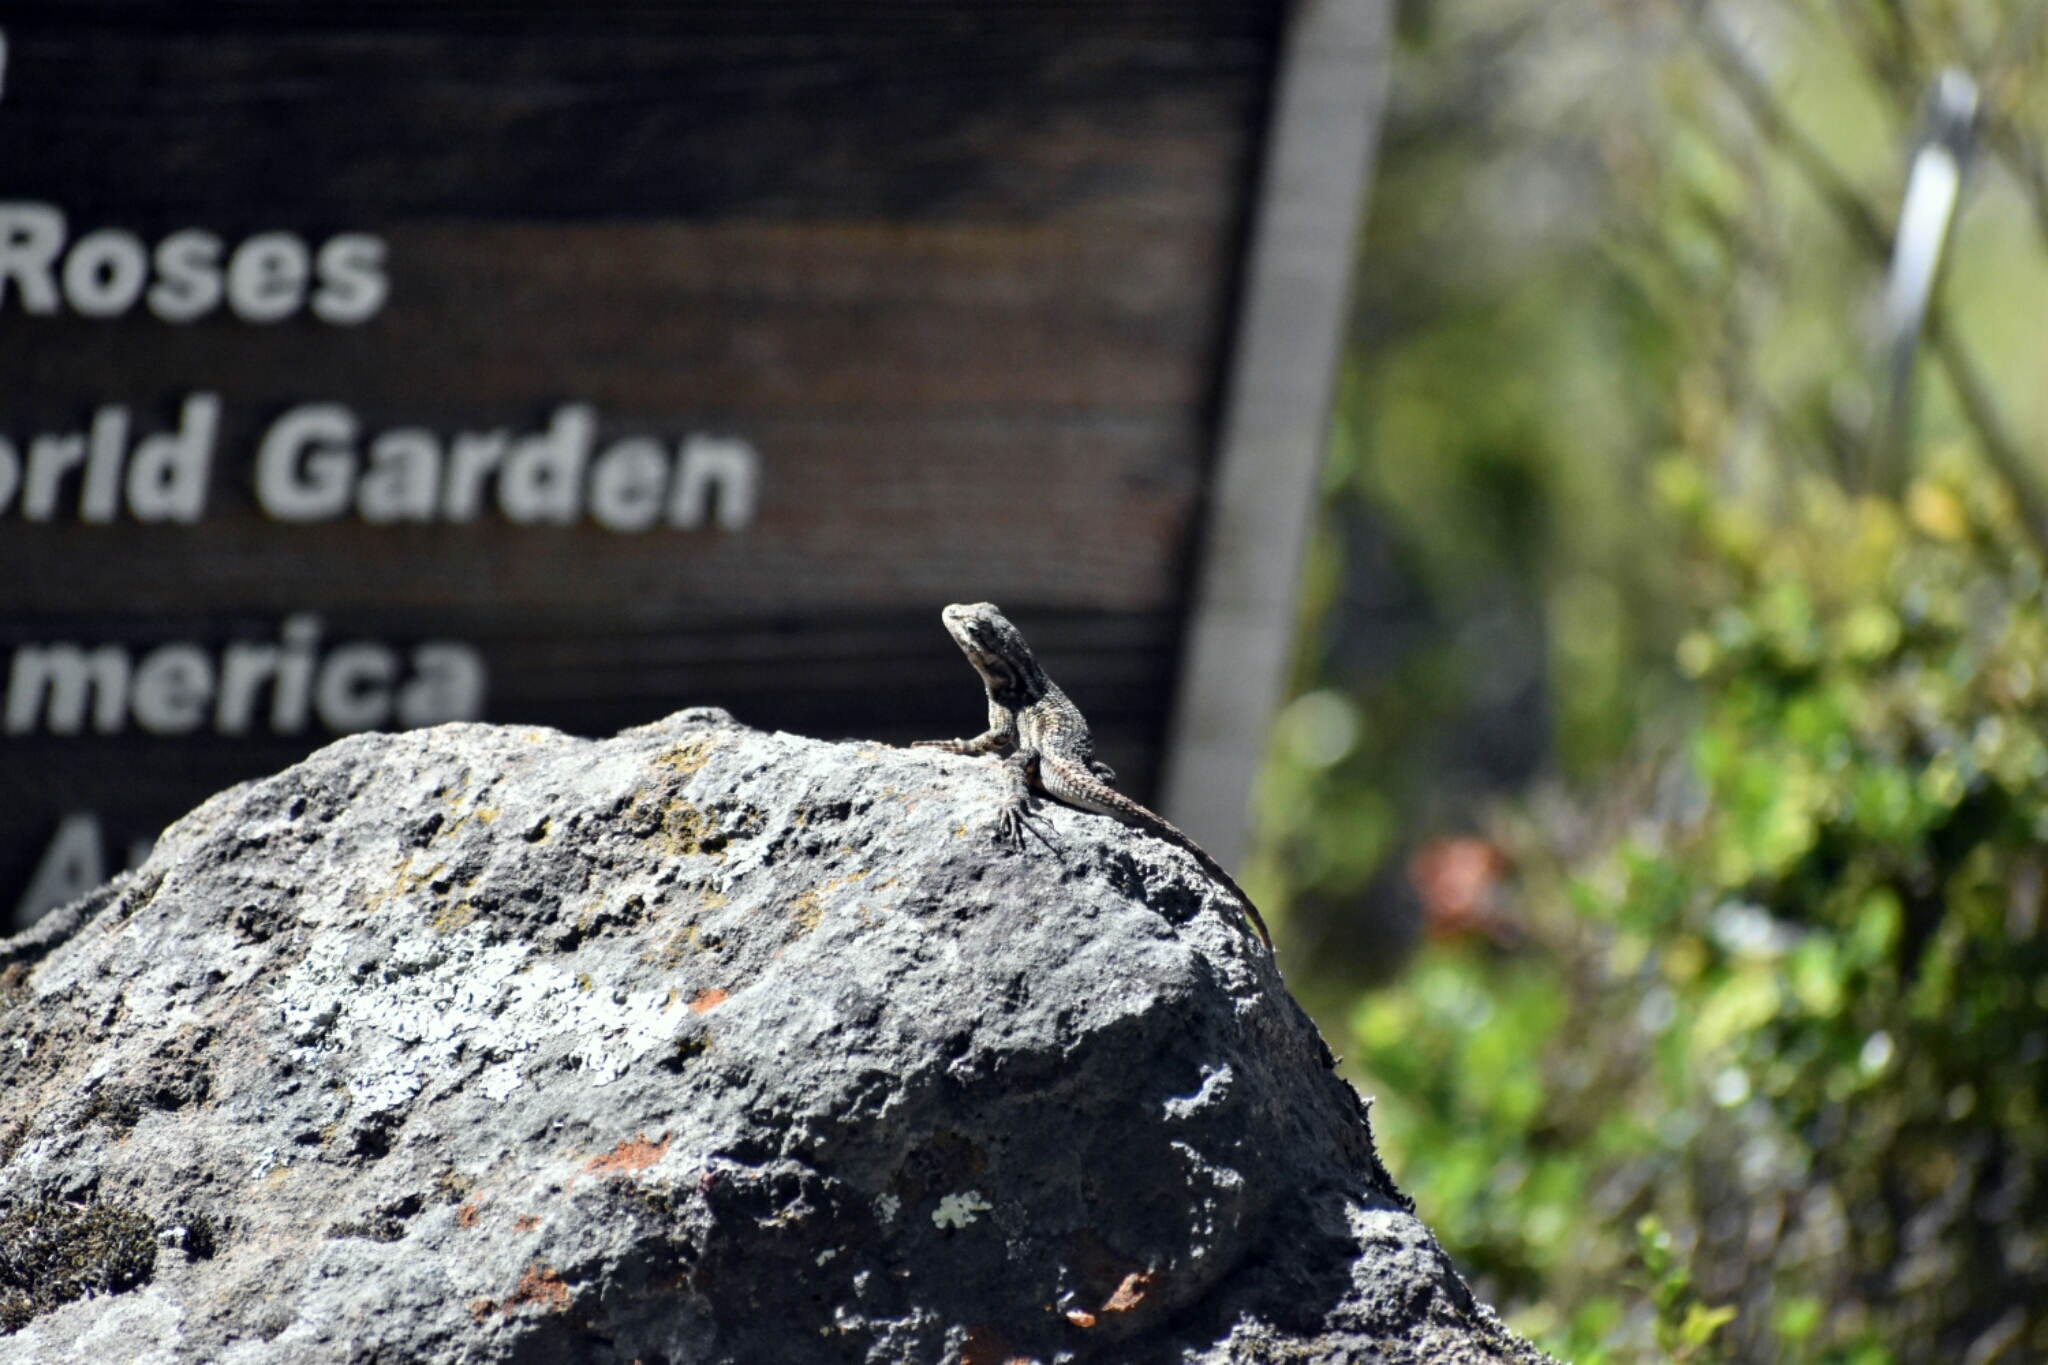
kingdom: Animalia
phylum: Chordata
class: Squamata
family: Phrynosomatidae
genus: Sceloporus
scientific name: Sceloporus occidentalis
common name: Western fence lizard
